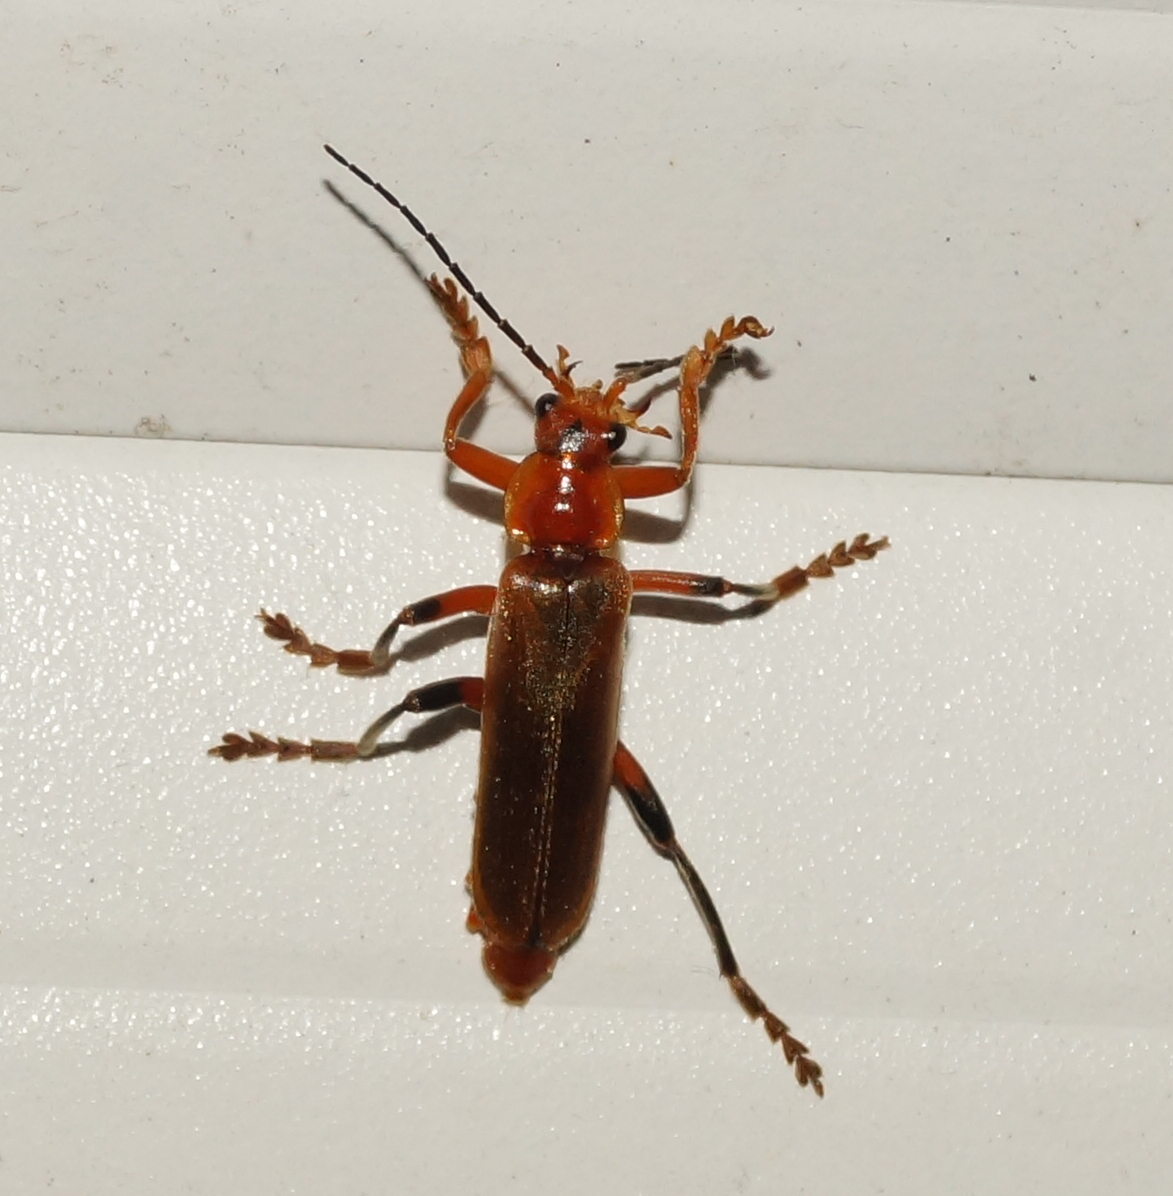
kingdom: Animalia
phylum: Arthropoda
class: Insecta
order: Coleoptera
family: Cantharidae
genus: Cantharis
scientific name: Cantharis livida
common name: Livid soldier beetle
